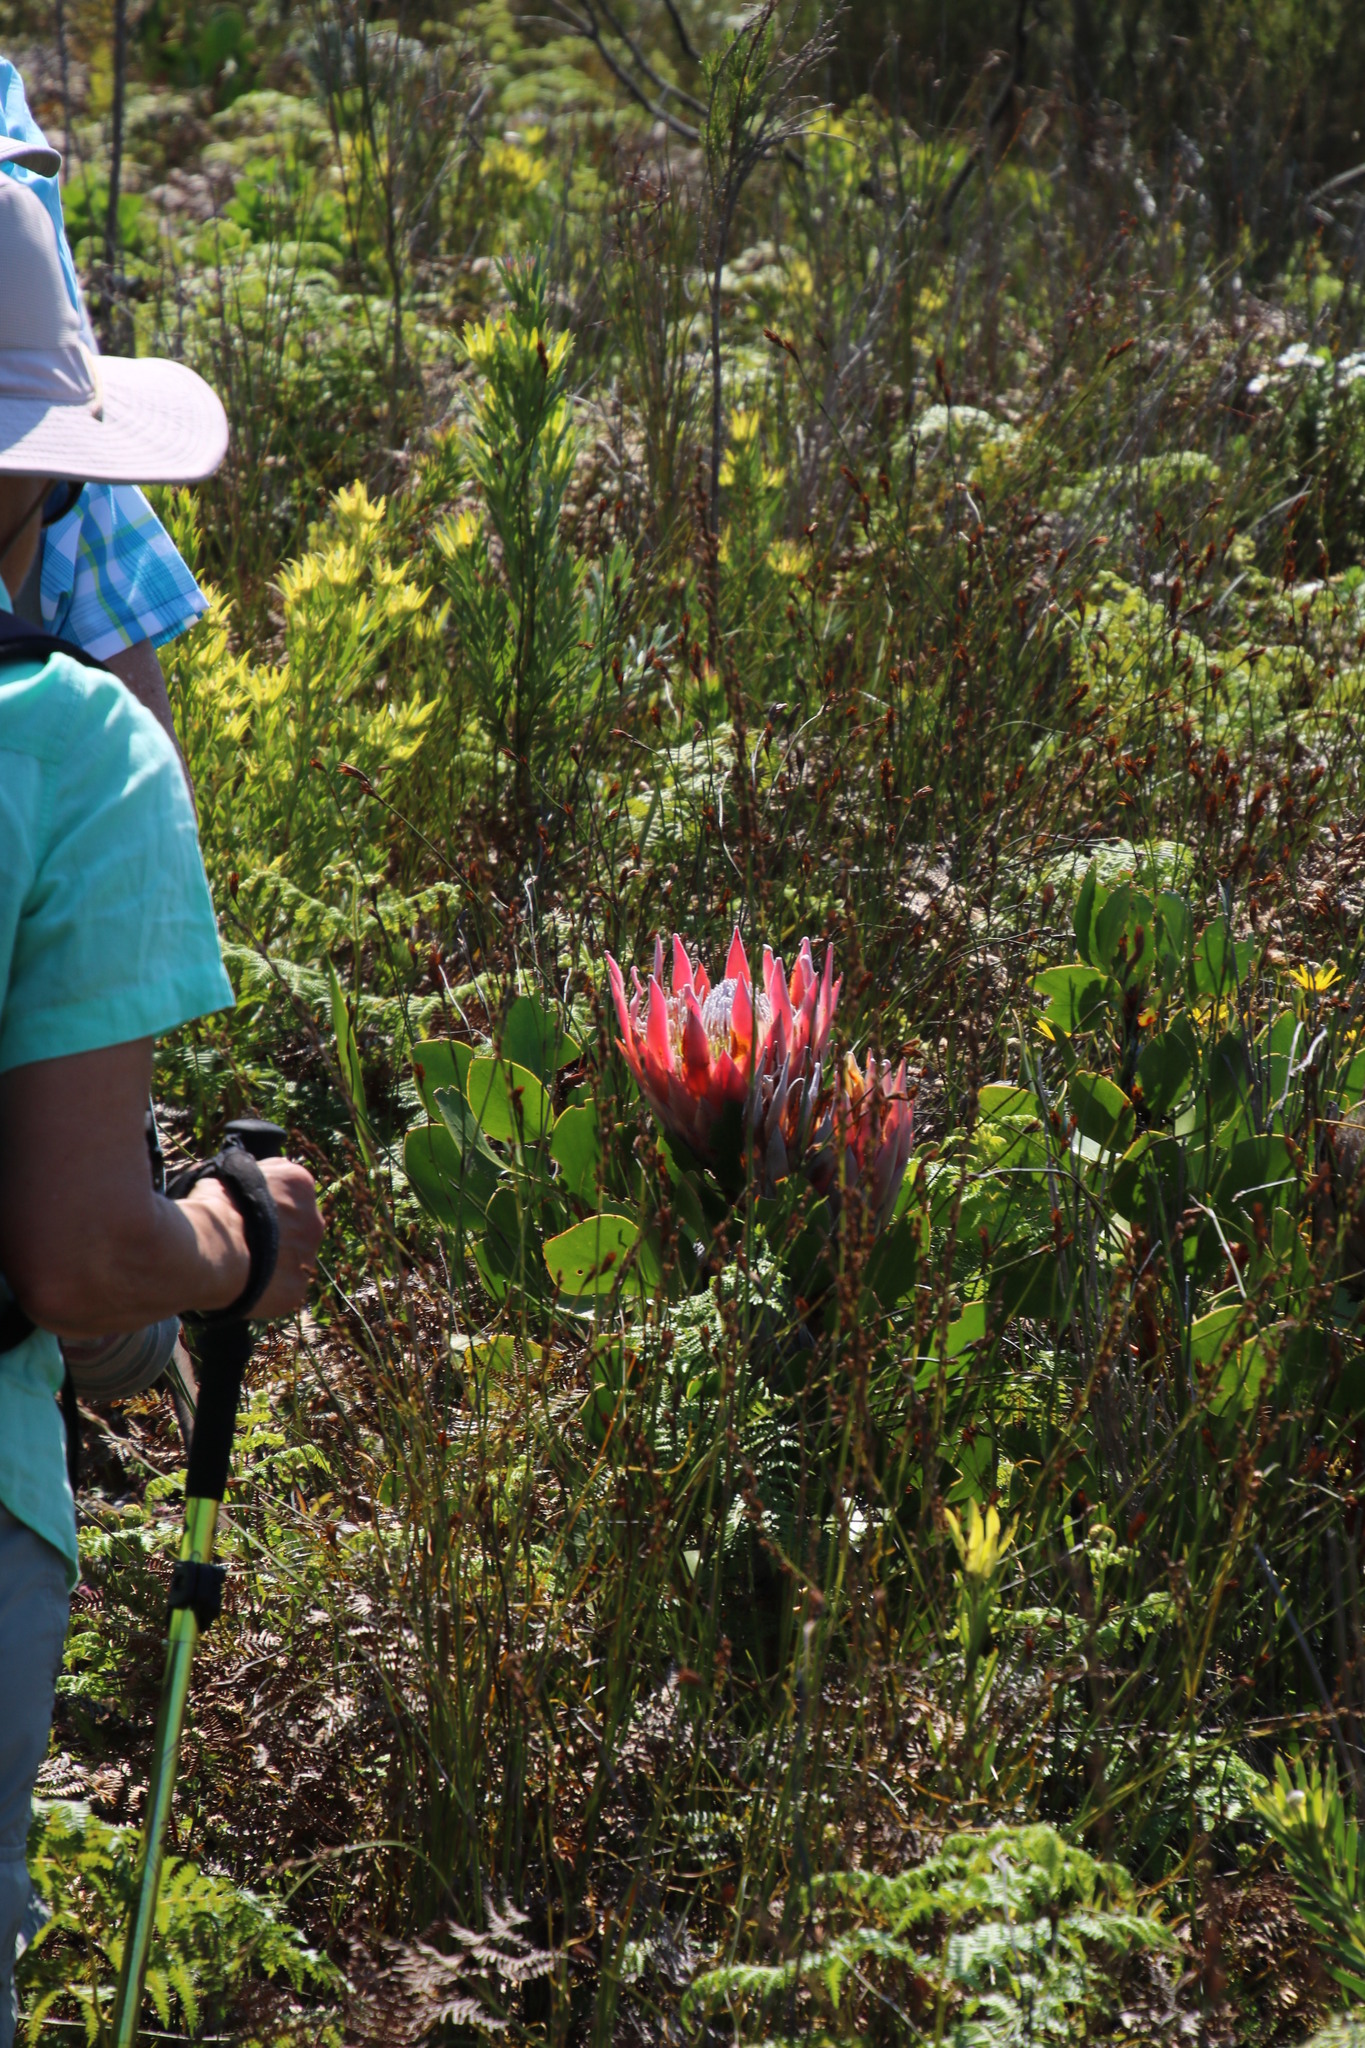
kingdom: Plantae
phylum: Tracheophyta
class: Magnoliopsida
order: Proteales
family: Proteaceae
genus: Protea
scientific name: Protea cynaroides
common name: King protea
